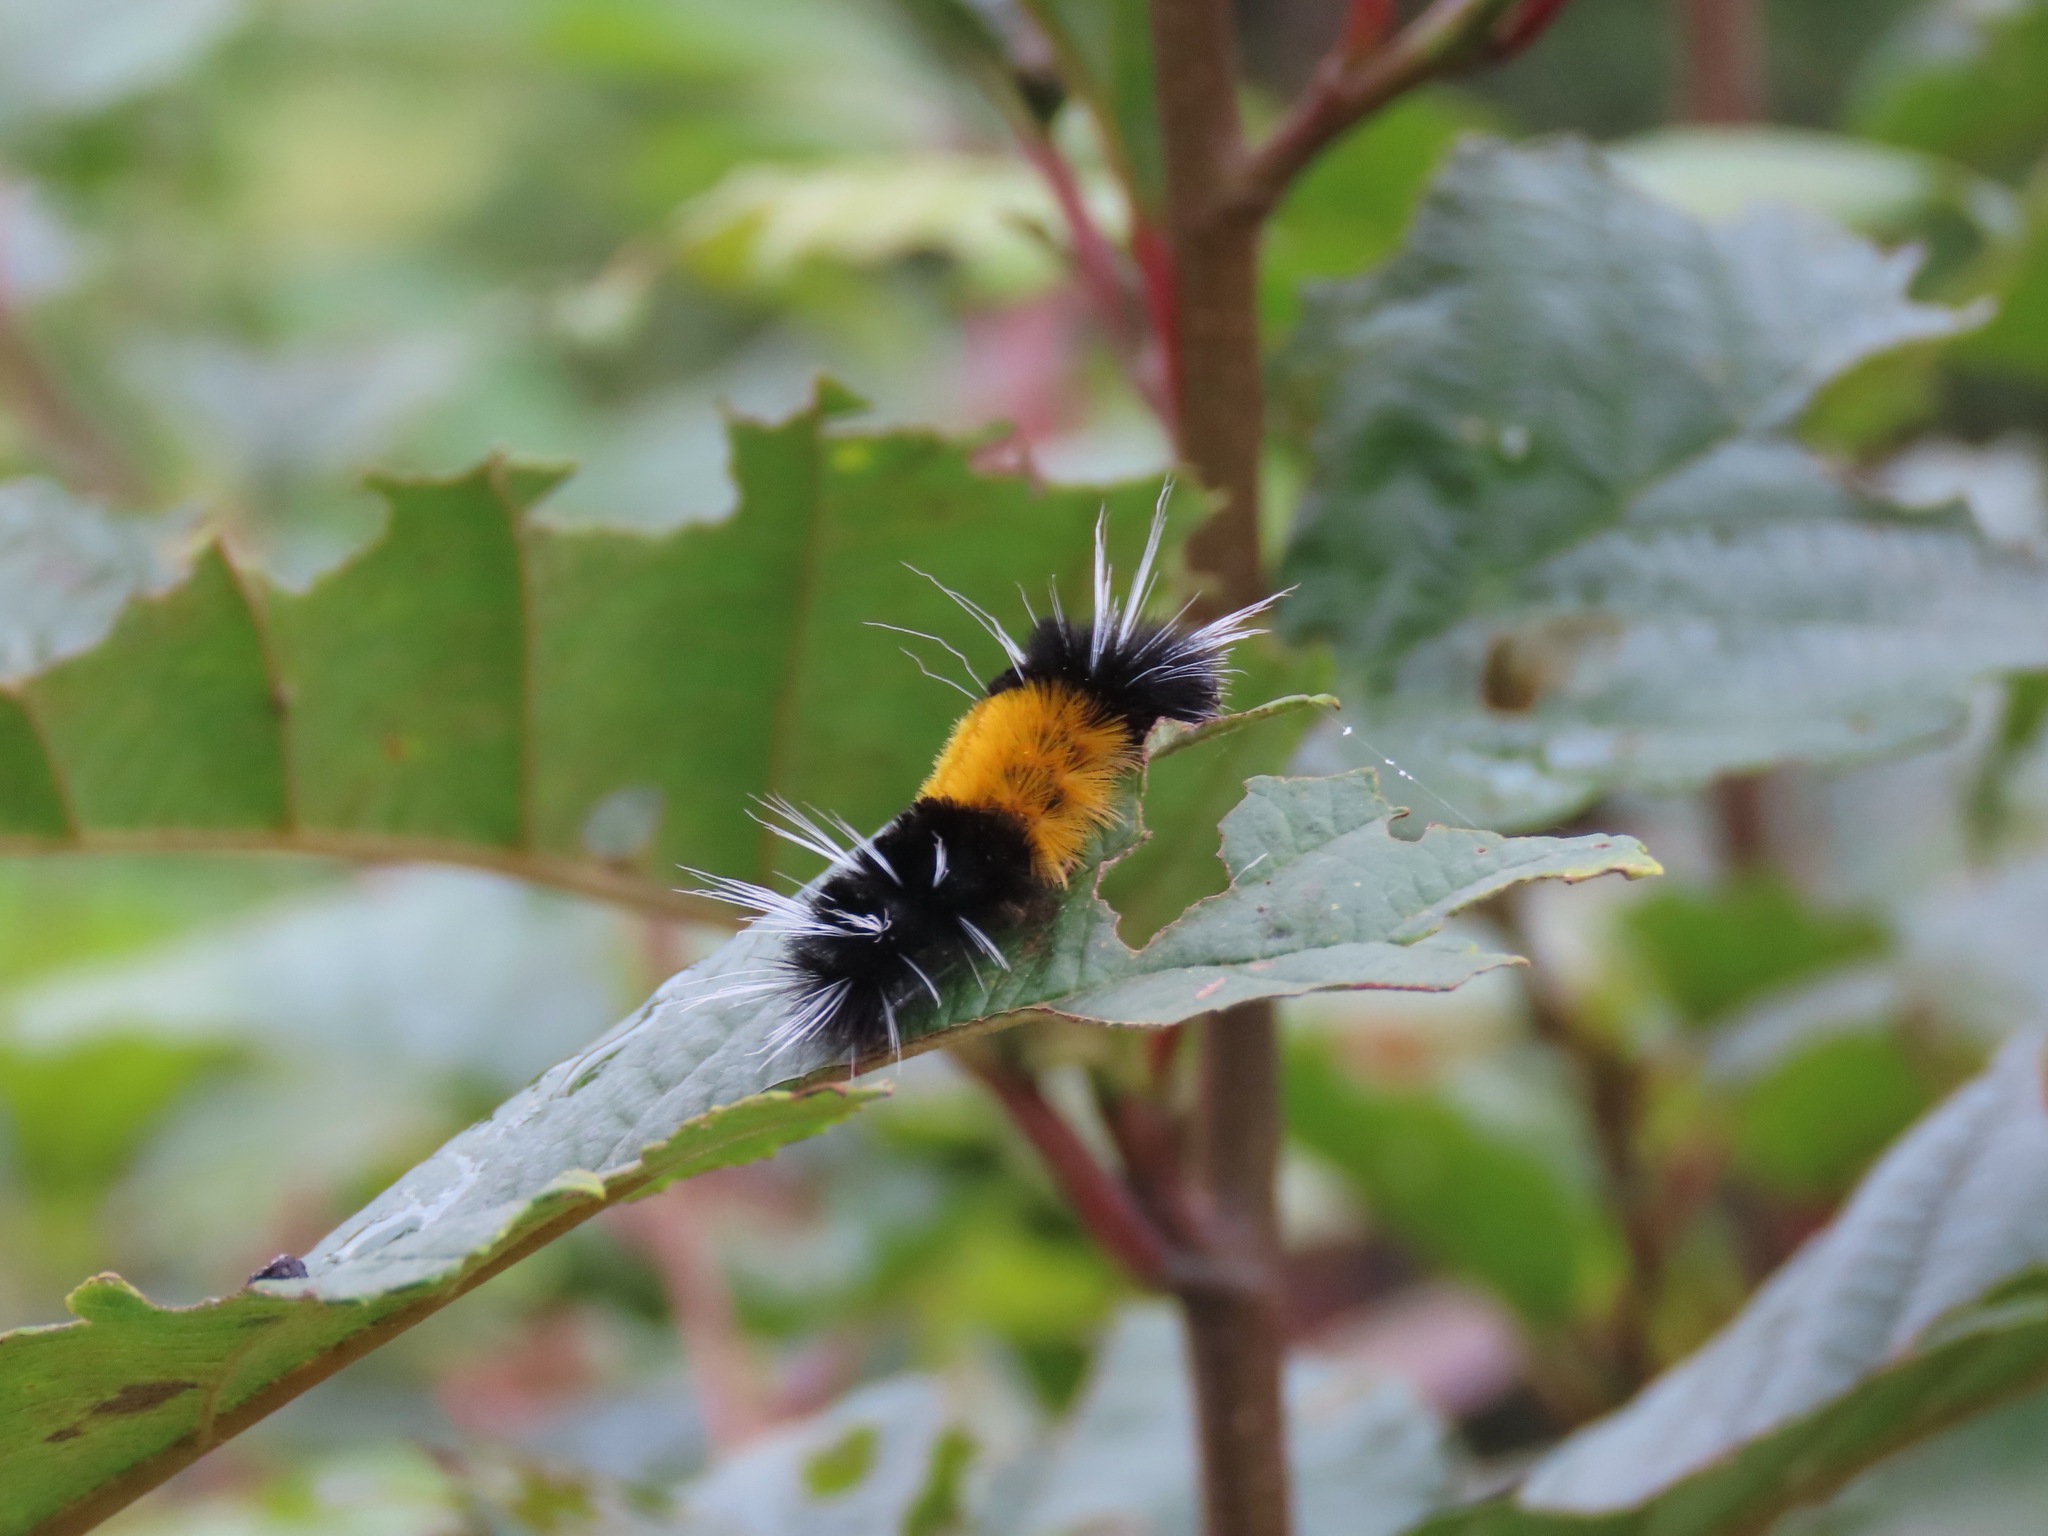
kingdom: Animalia
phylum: Arthropoda
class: Insecta
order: Lepidoptera
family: Erebidae
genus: Lophocampa
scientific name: Lophocampa maculata
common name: Spotted tussock moth
